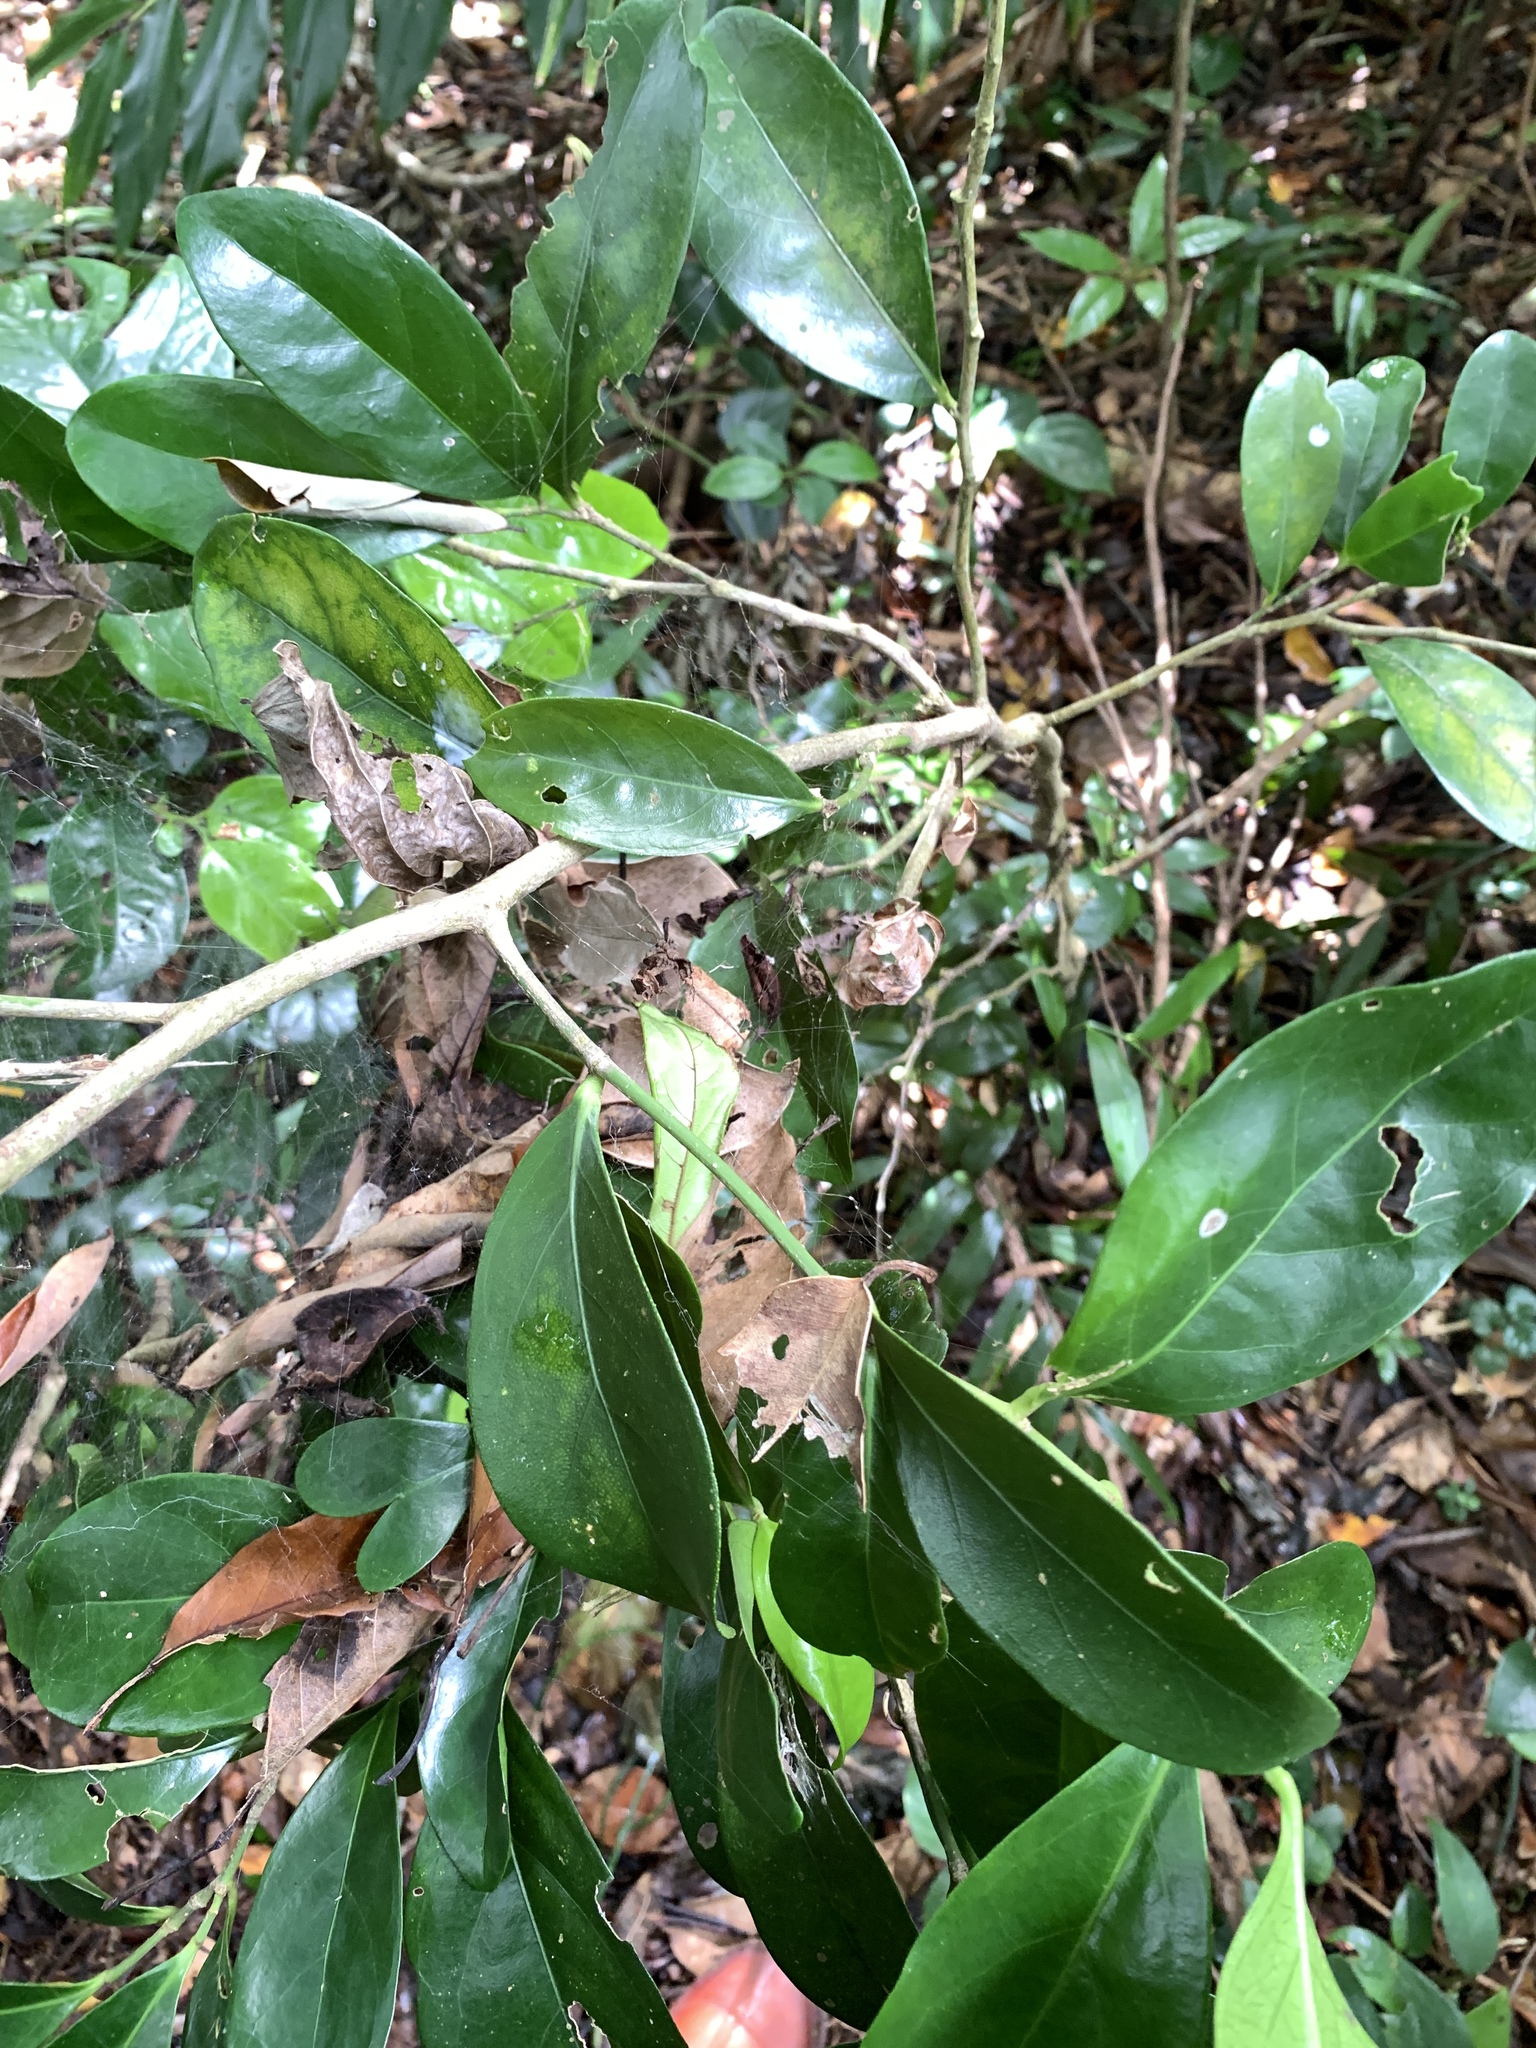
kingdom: Plantae
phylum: Tracheophyta
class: Magnoliopsida
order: Malpighiales
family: Euphorbiaceae
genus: Suregada
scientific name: Suregada aequorea
